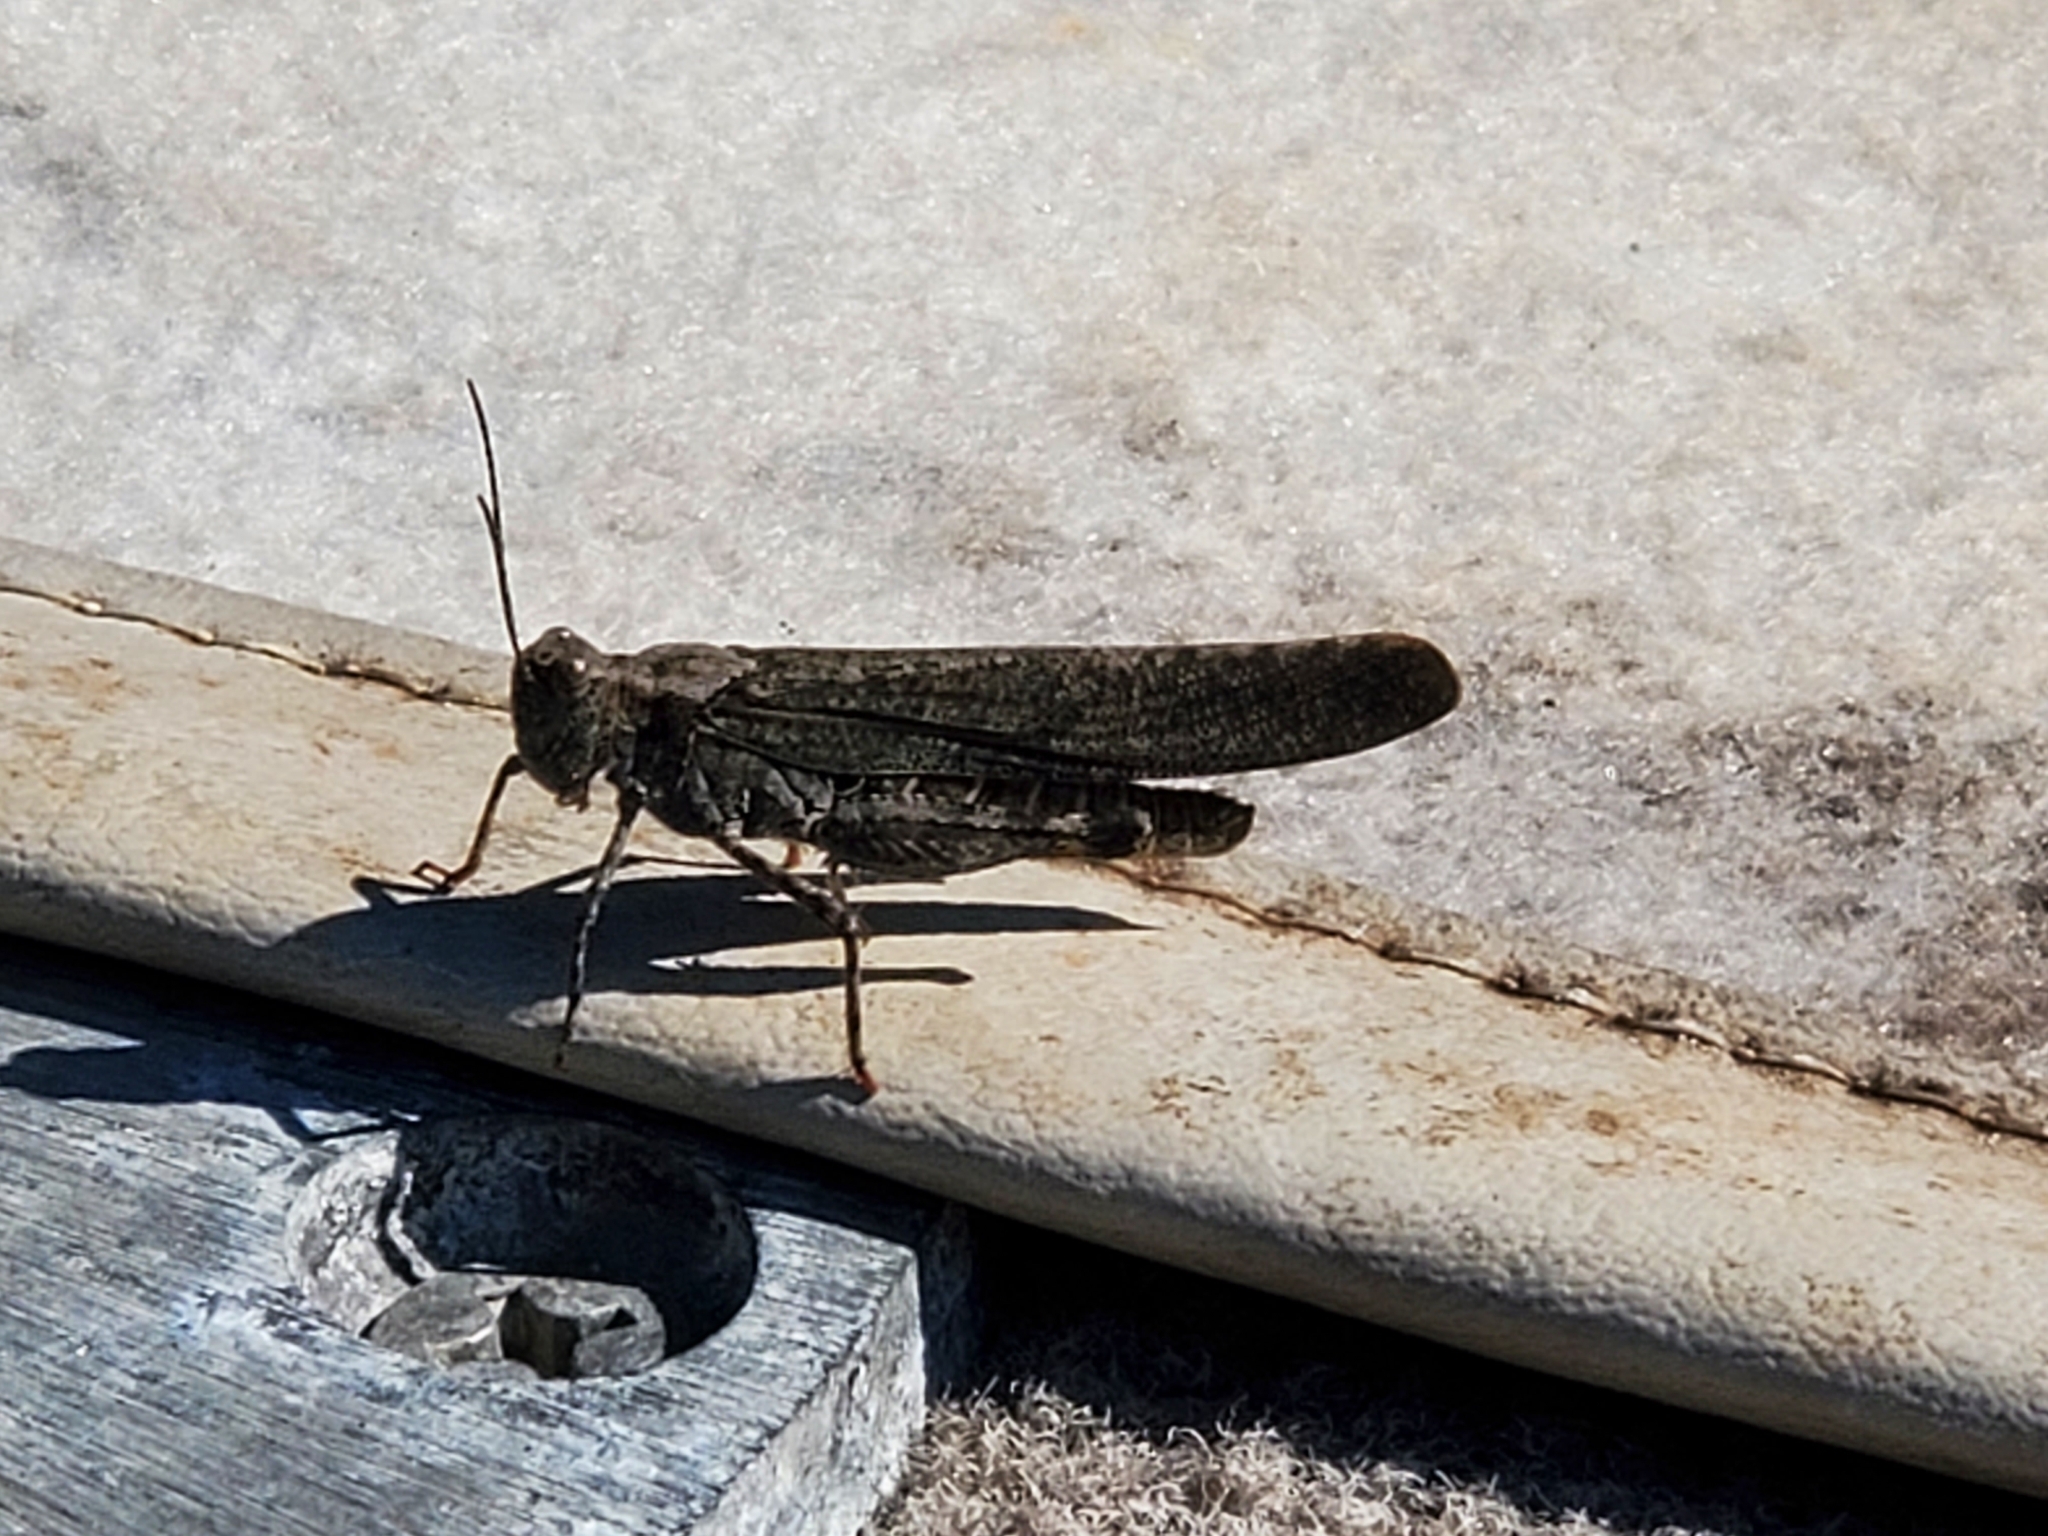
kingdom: Animalia
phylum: Arthropoda
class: Insecta
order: Orthoptera
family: Acrididae
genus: Trimerotropis
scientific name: Trimerotropis verruculata
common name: Crackling forest grasshopper
